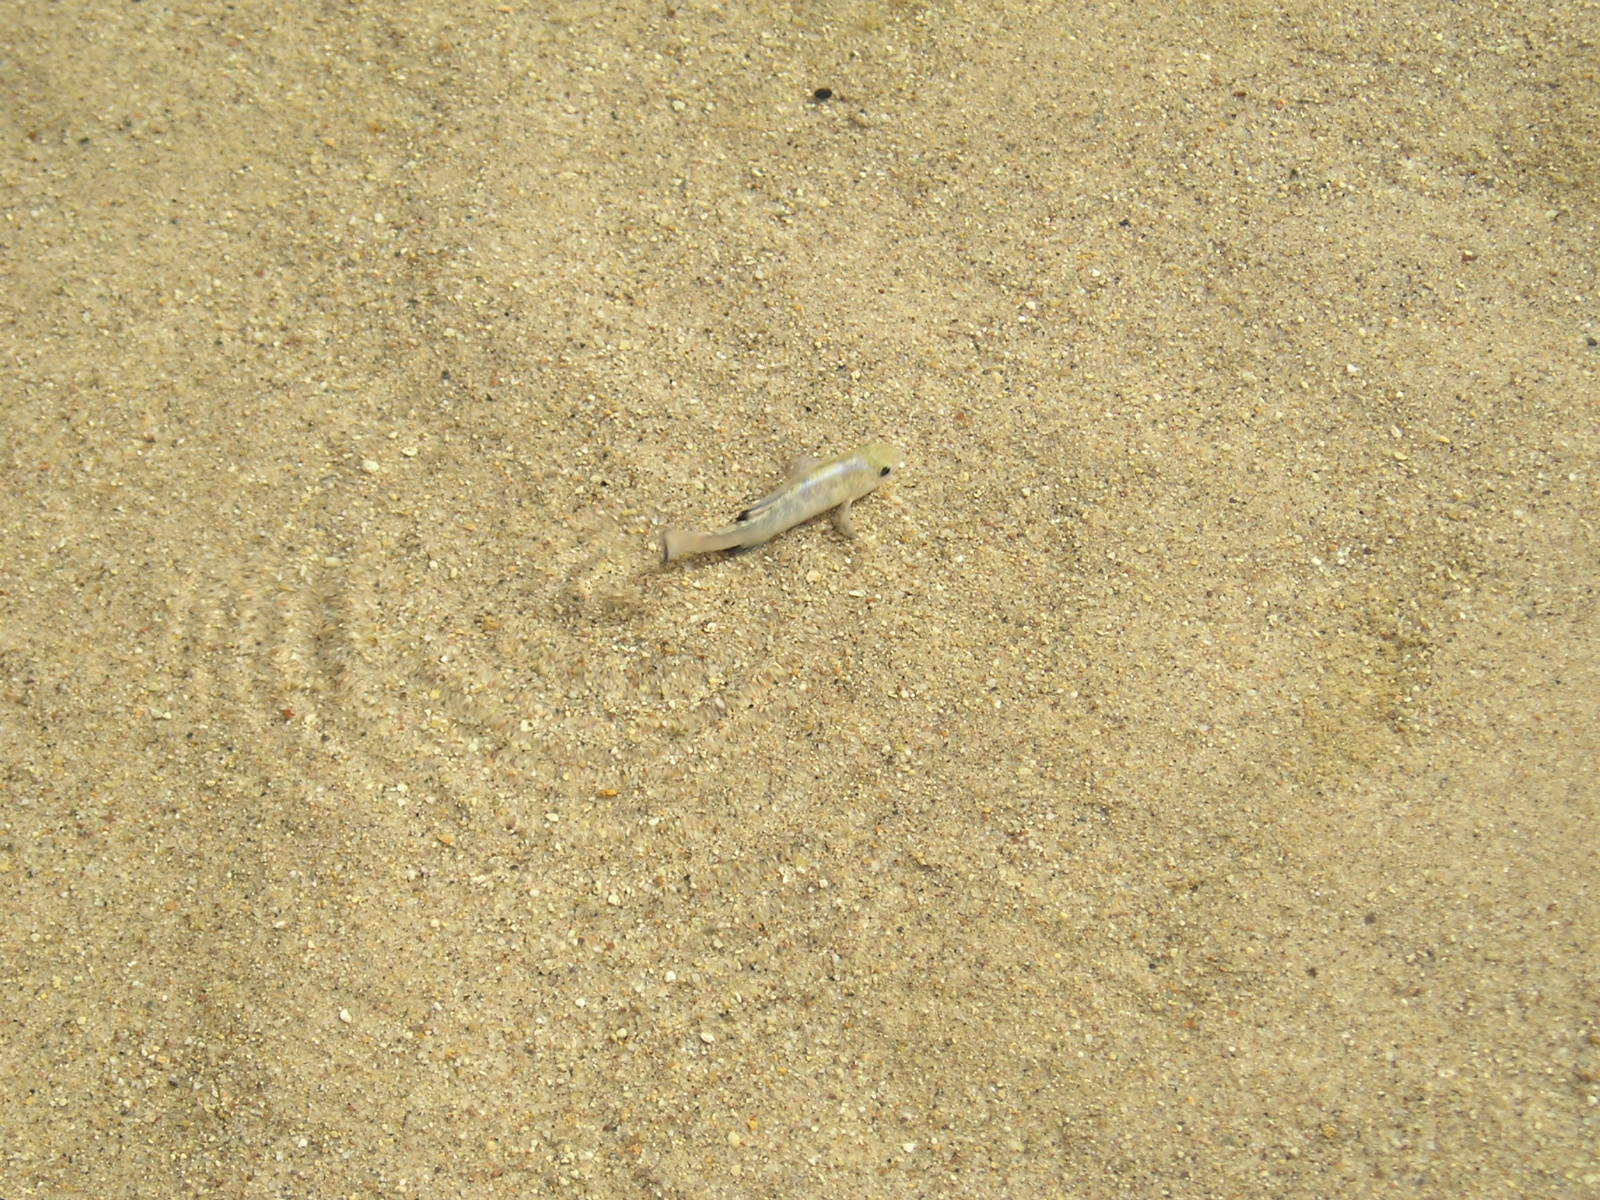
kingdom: Animalia
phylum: Chordata
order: Cyprinodontiformes
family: Cyprinodontidae
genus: Cyprinodon
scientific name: Cyprinodon salinus
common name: Cottonball marsh pupfish
